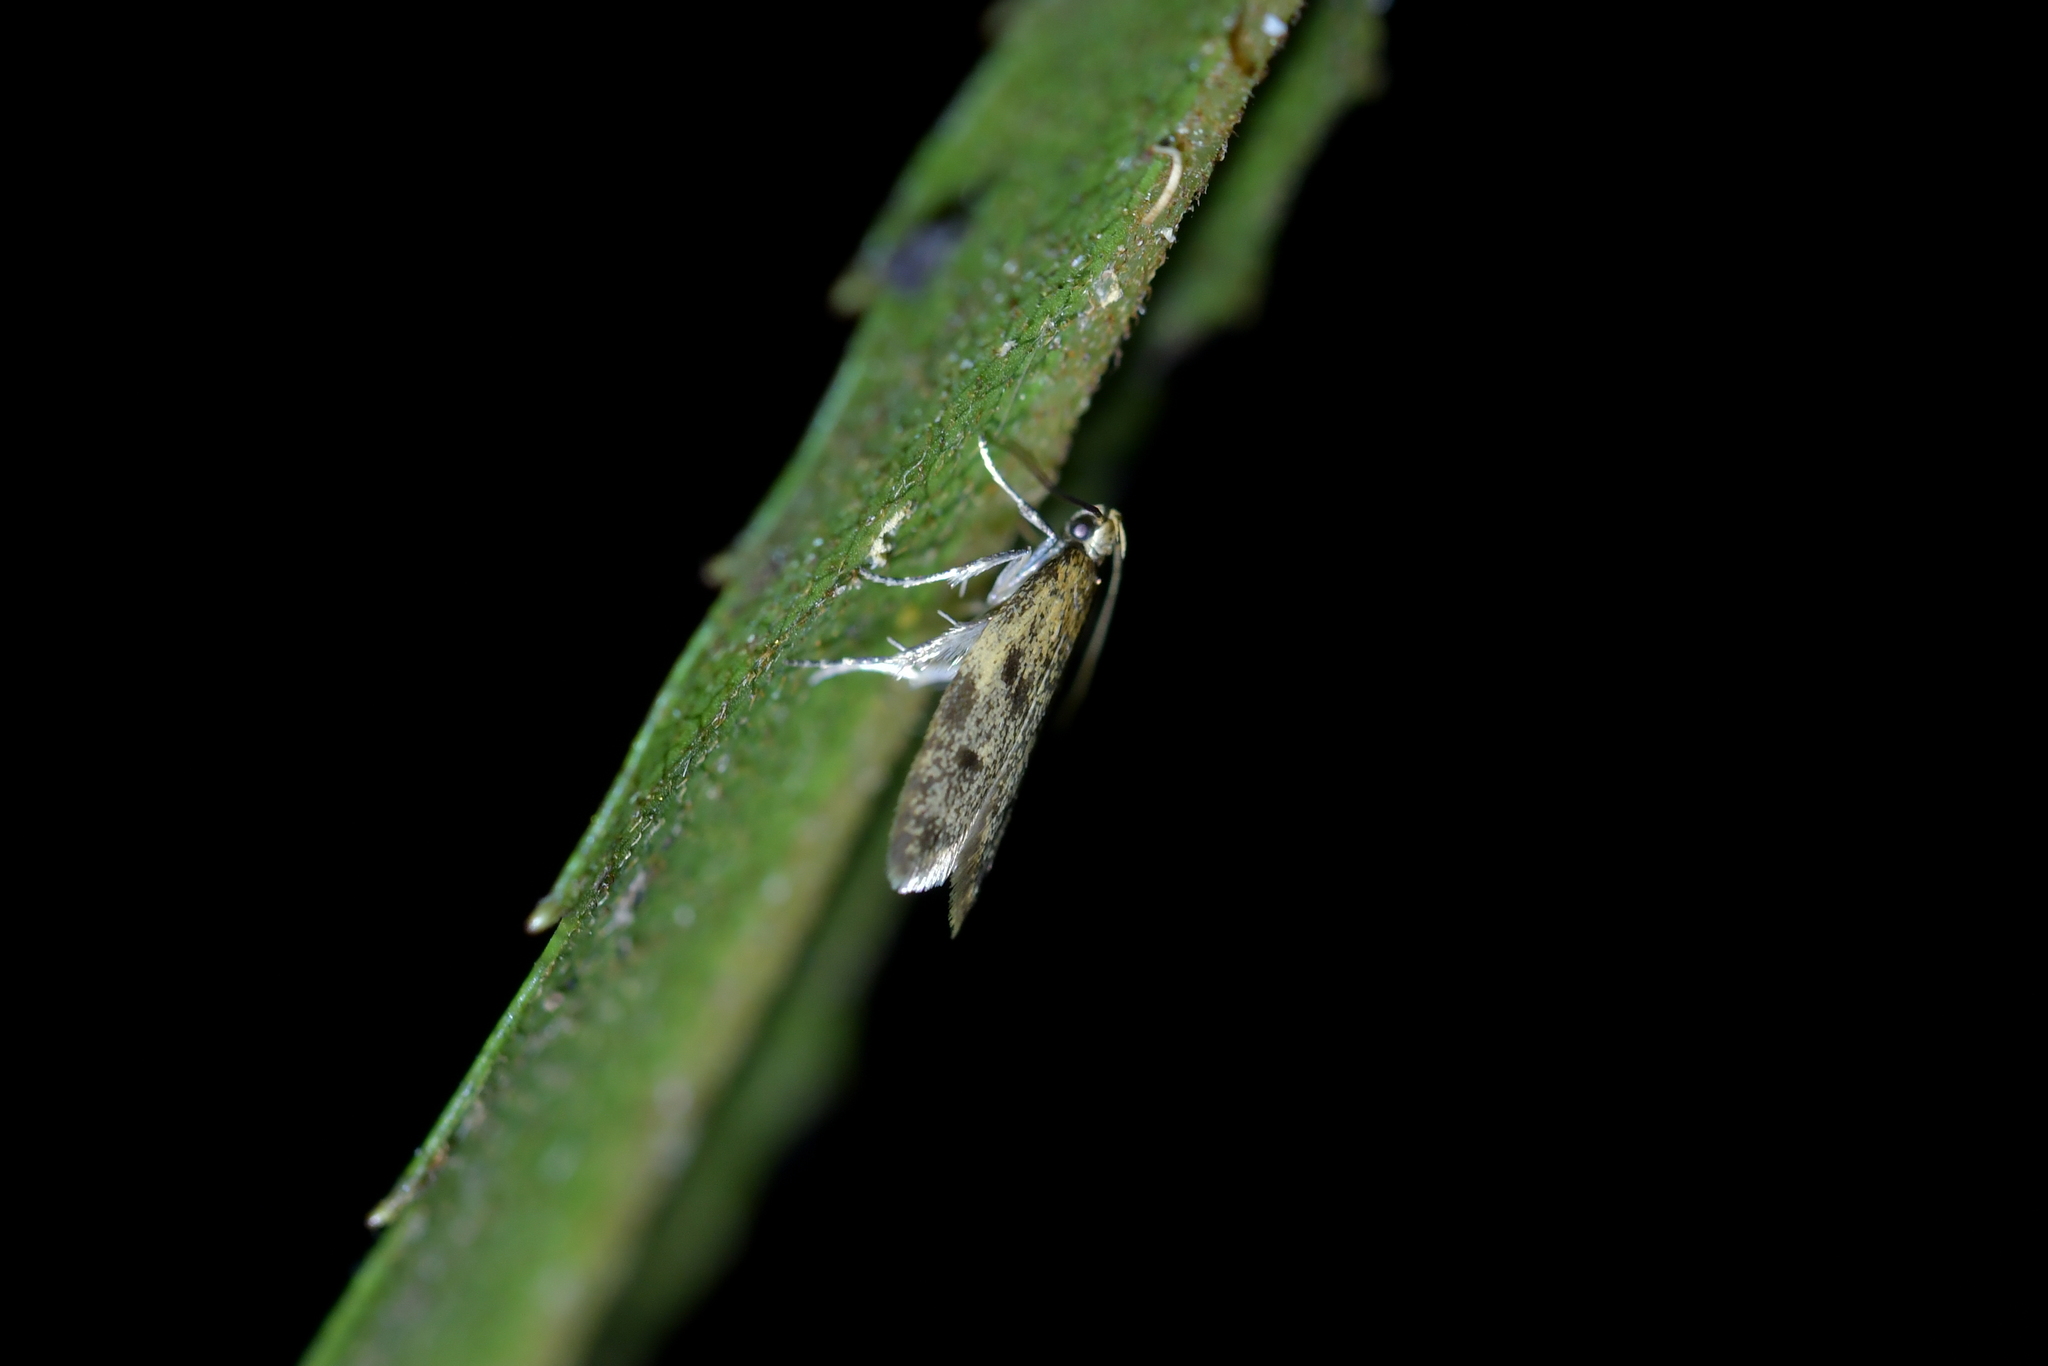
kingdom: Animalia
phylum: Arthropoda
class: Insecta
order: Lepidoptera
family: Oecophoridae
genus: Gymnobathra
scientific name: Gymnobathra tholodella
